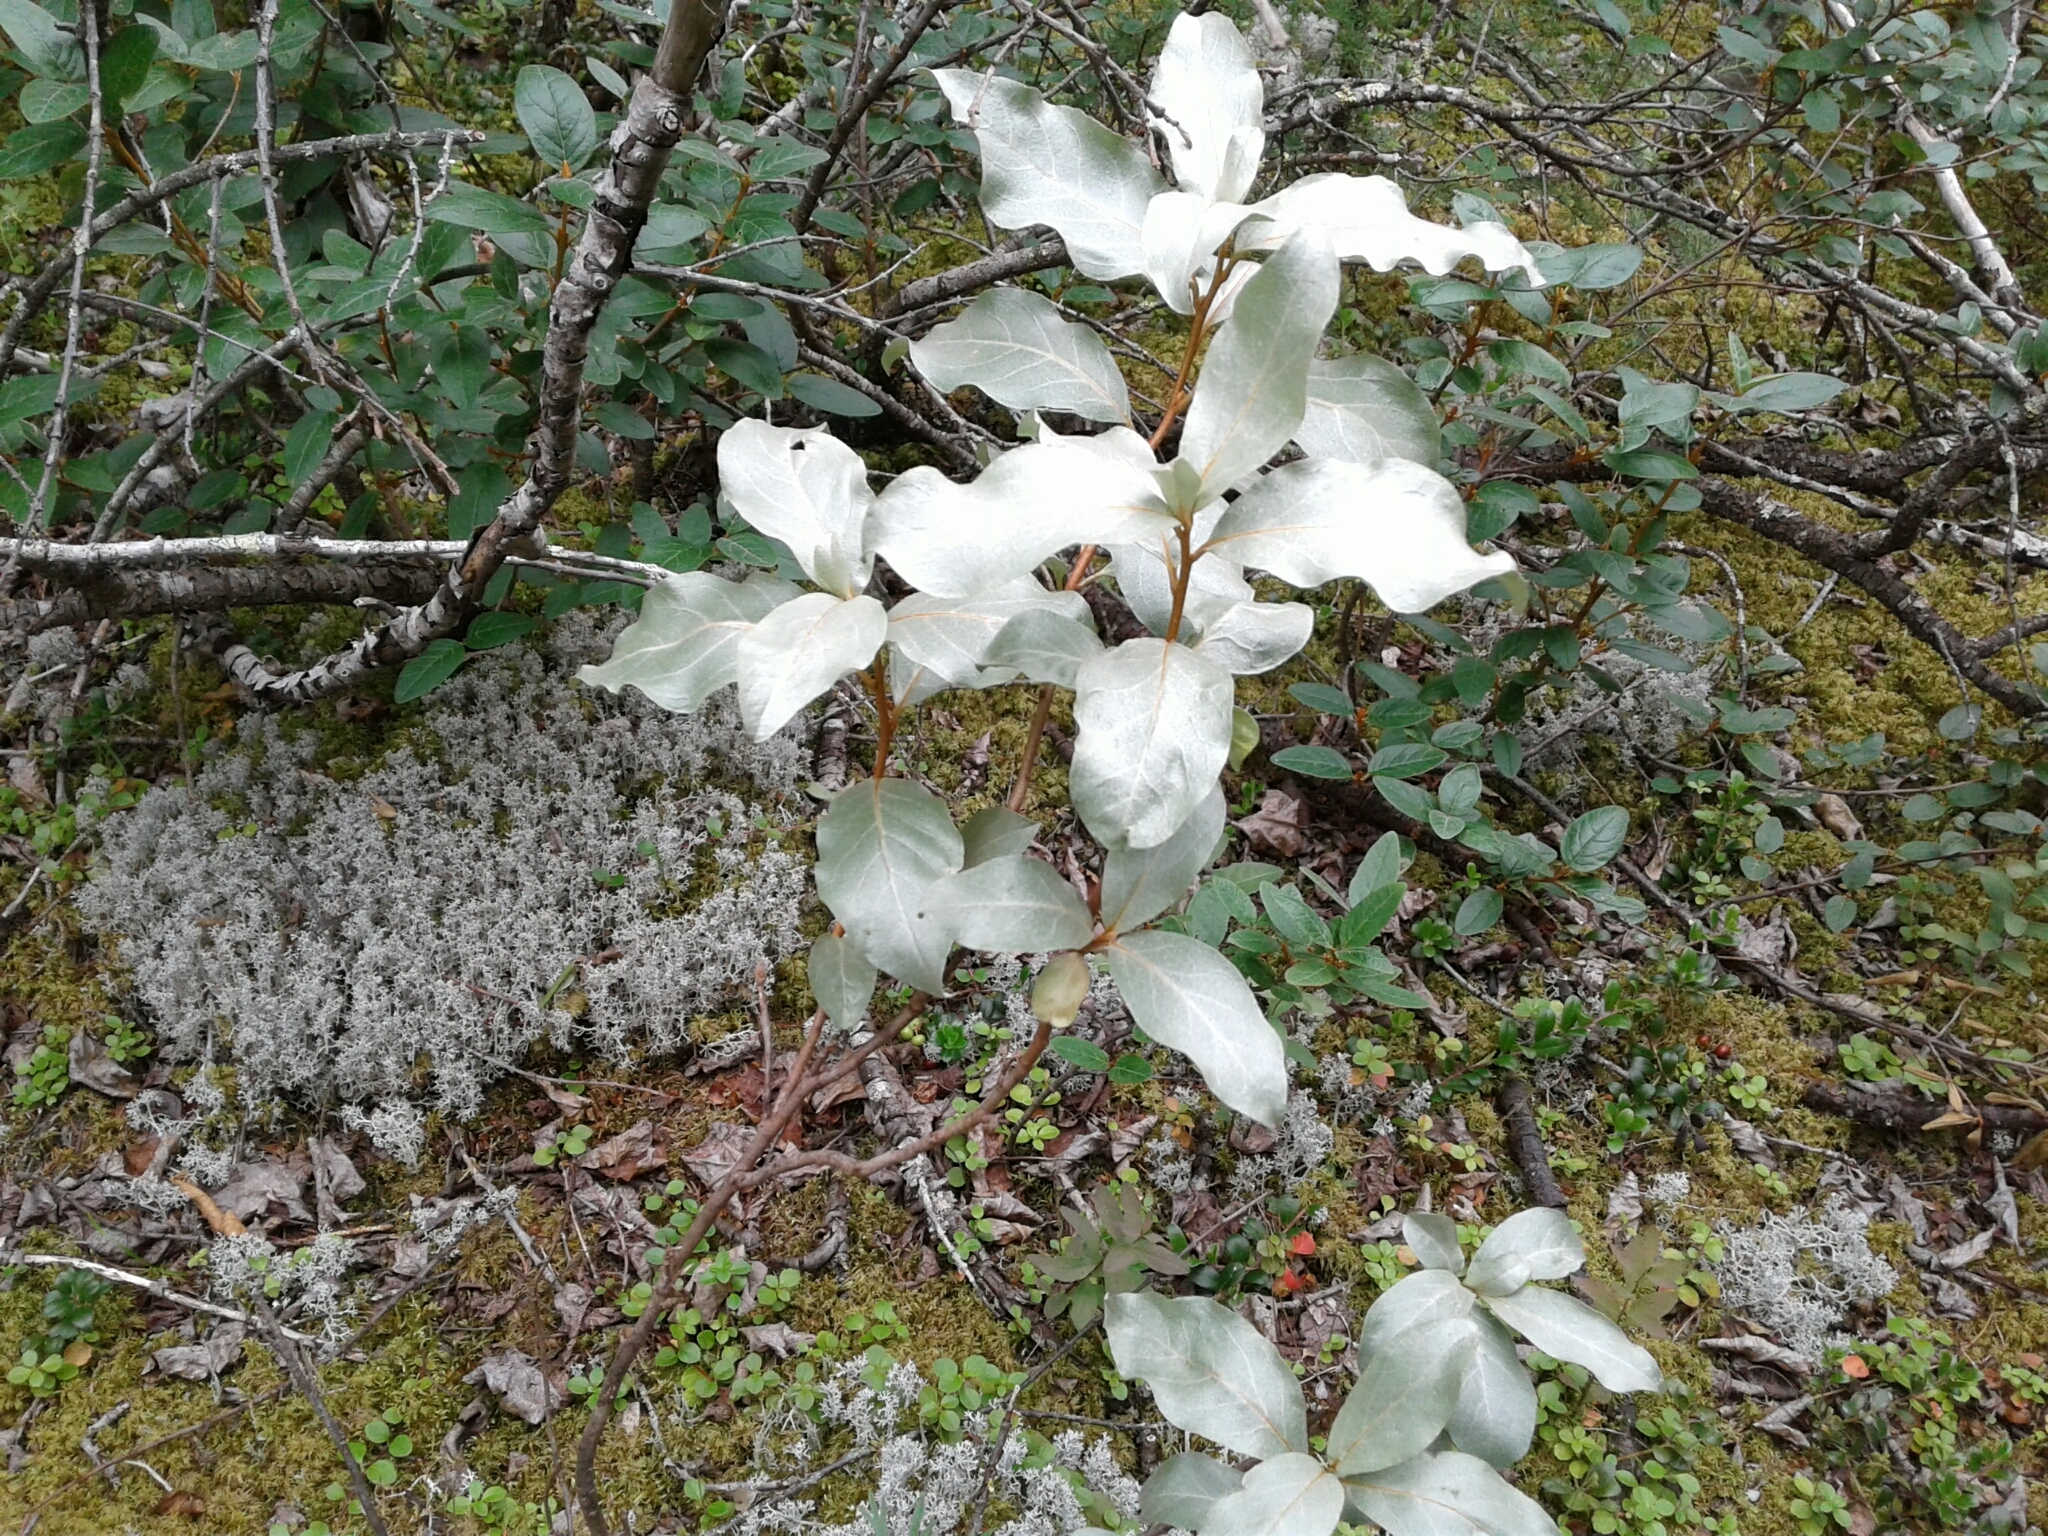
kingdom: Plantae
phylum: Tracheophyta
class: Magnoliopsida
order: Rosales
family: Elaeagnaceae
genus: Elaeagnus
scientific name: Elaeagnus commutata
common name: Silverberry
